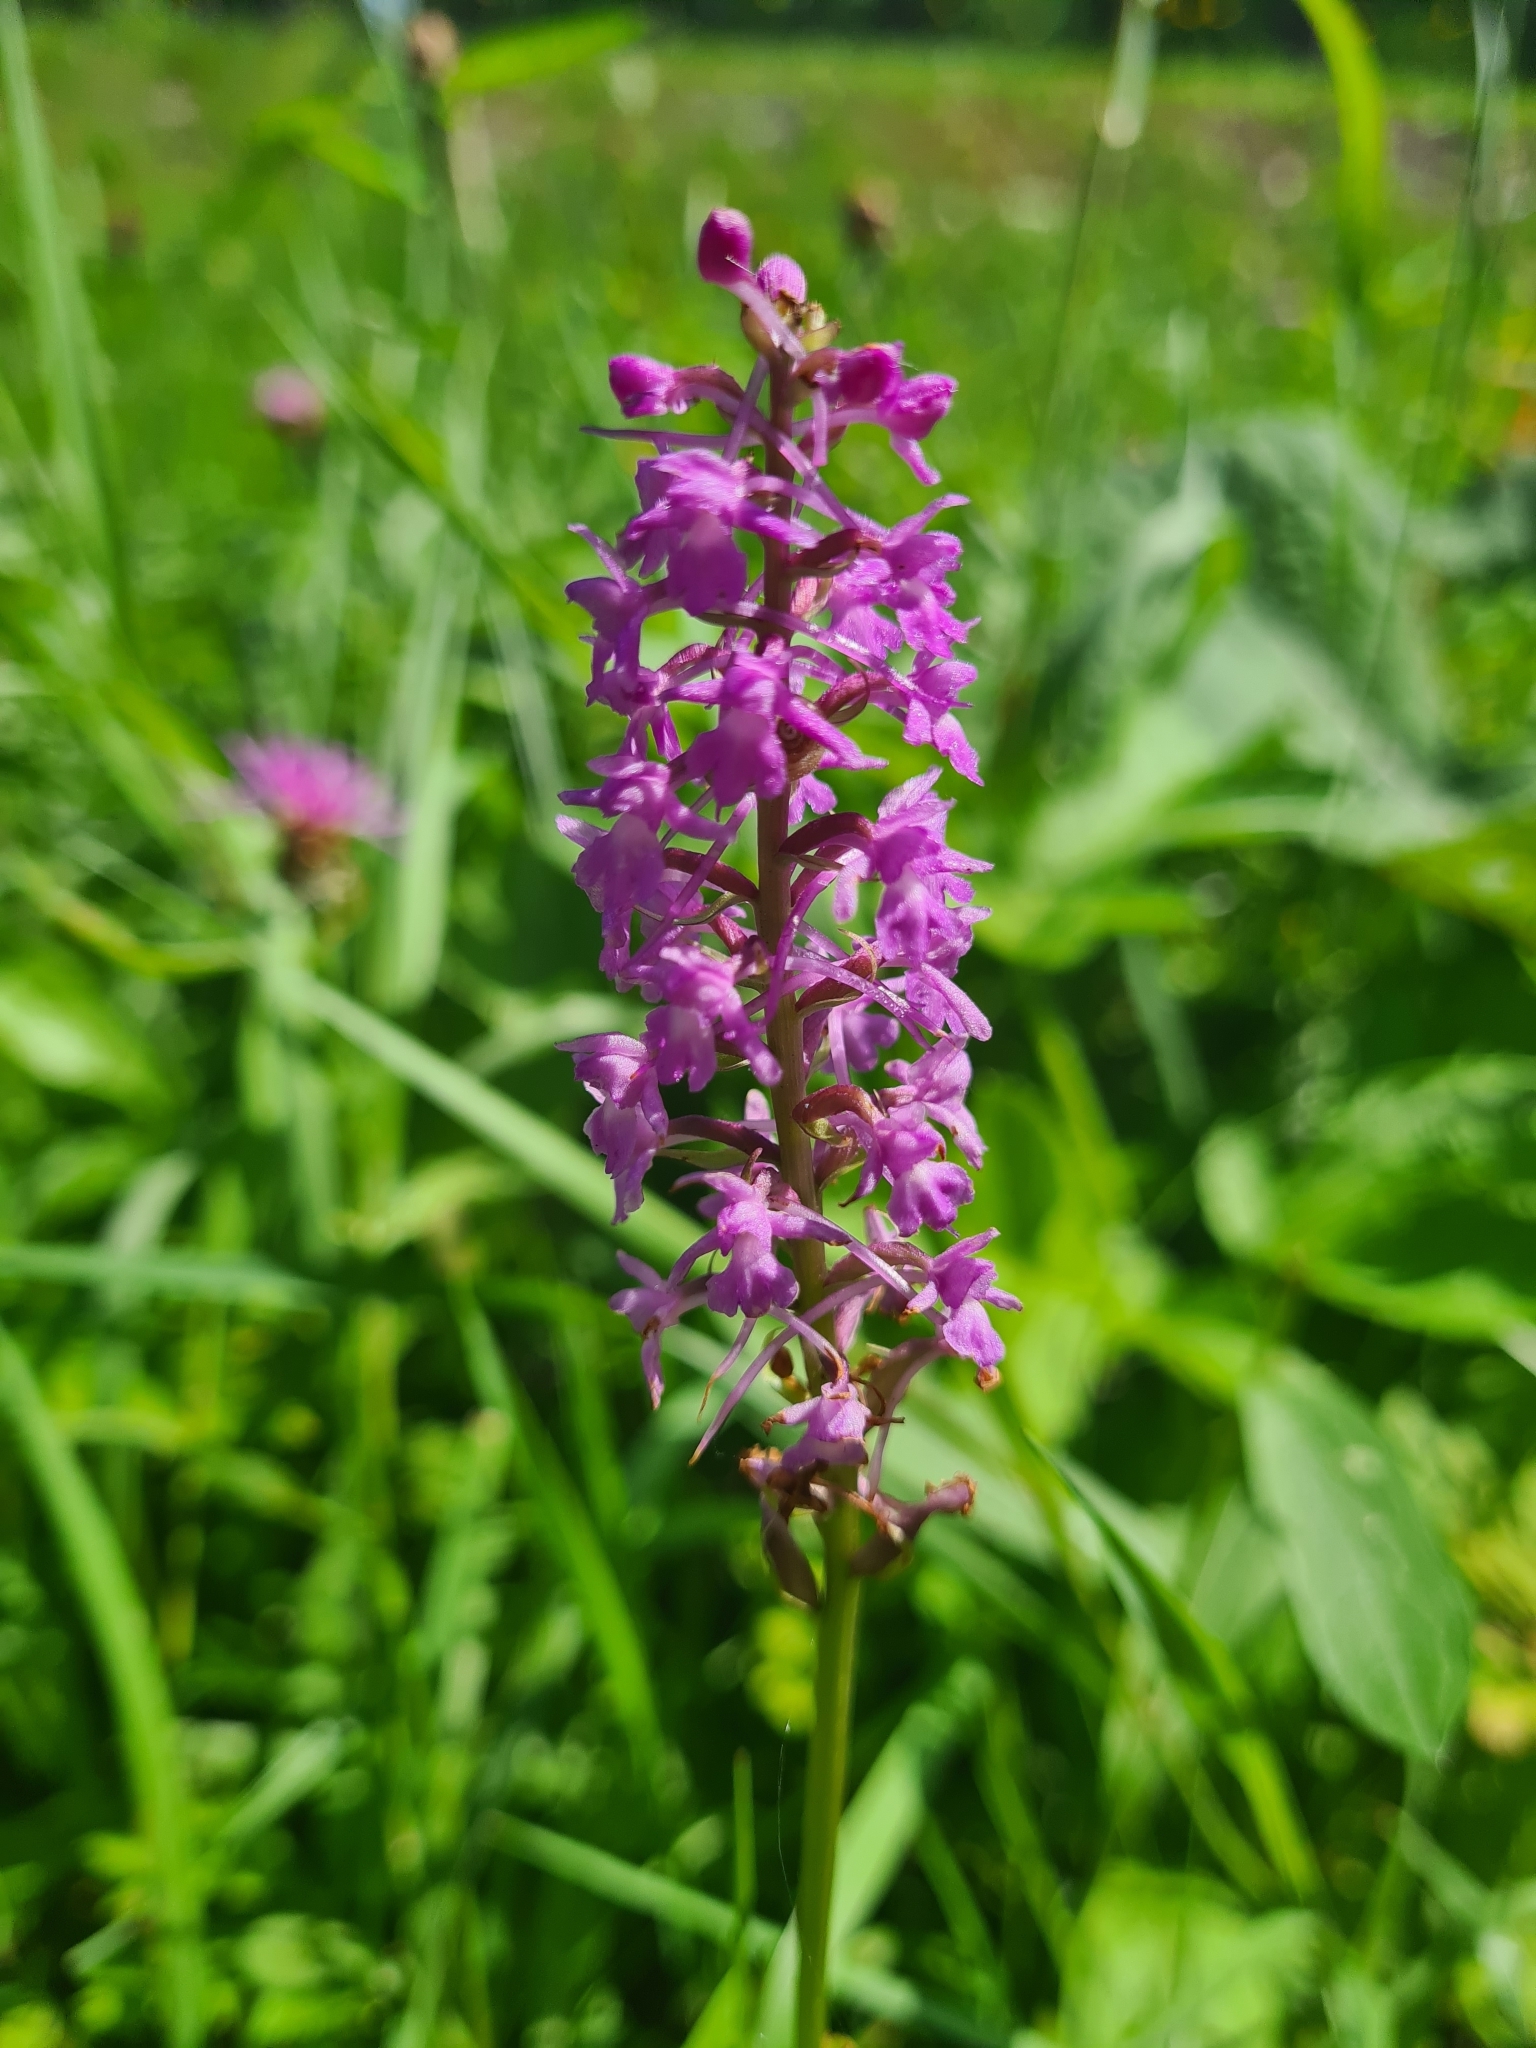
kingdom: Plantae
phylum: Tracheophyta
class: Liliopsida
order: Asparagales
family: Orchidaceae
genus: Gymnadenia
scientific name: Gymnadenia conopsea
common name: Fragrant orchid
